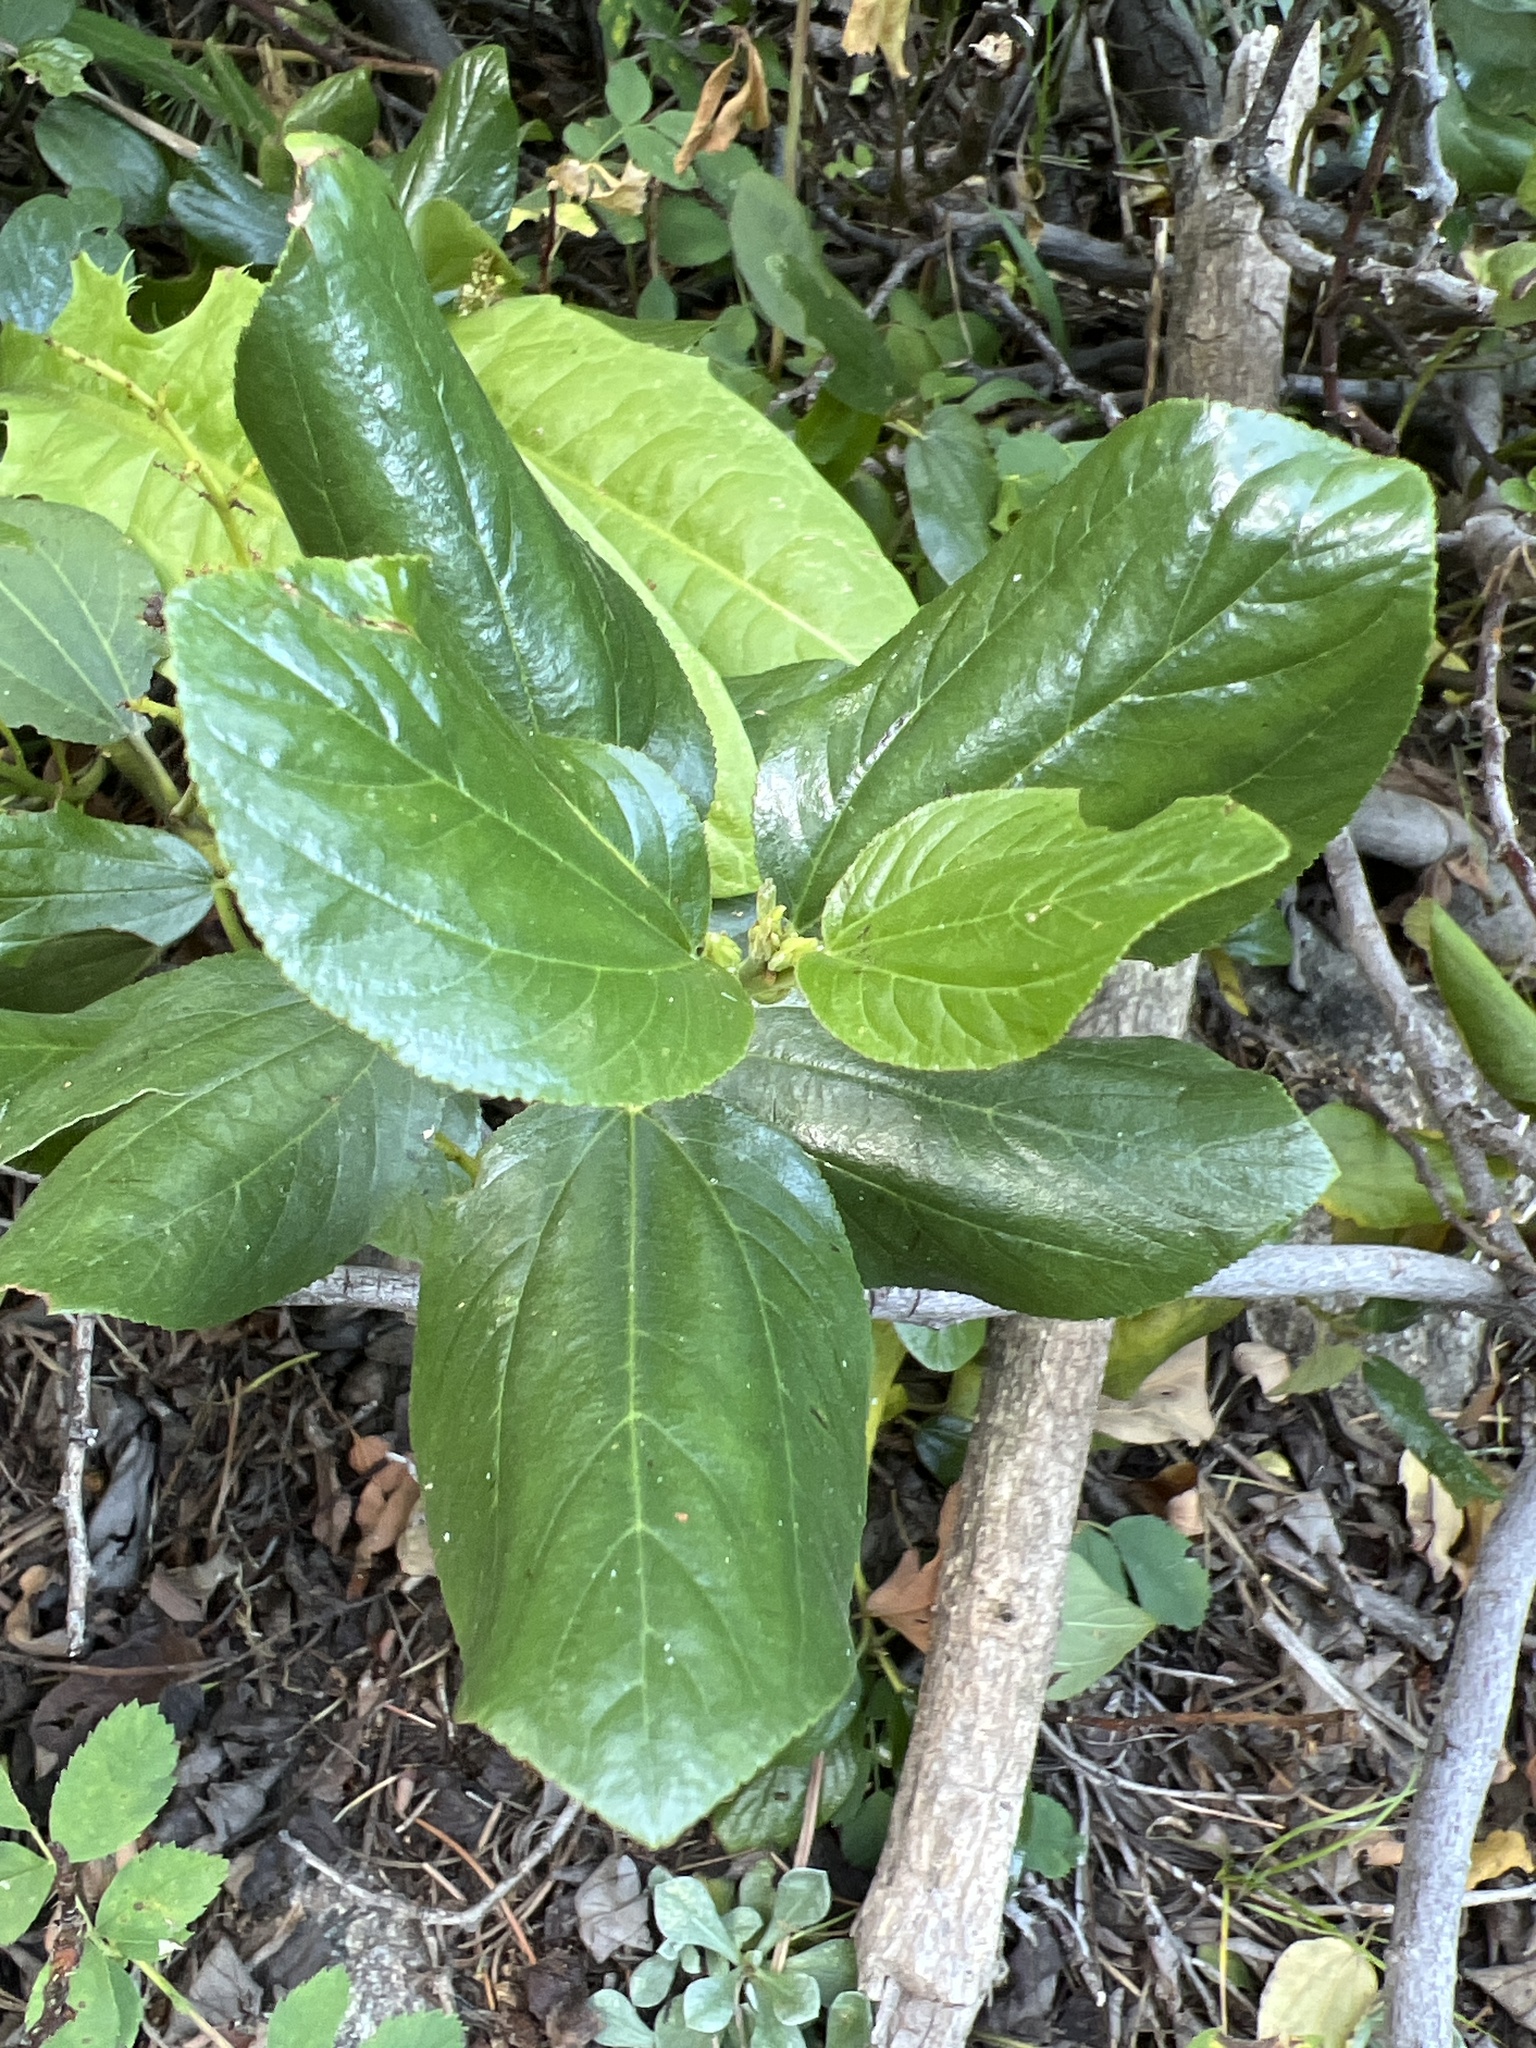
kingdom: Plantae
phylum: Tracheophyta
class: Magnoliopsida
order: Rosales
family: Rhamnaceae
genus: Ceanothus
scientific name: Ceanothus velutinus
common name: Snowbrush
